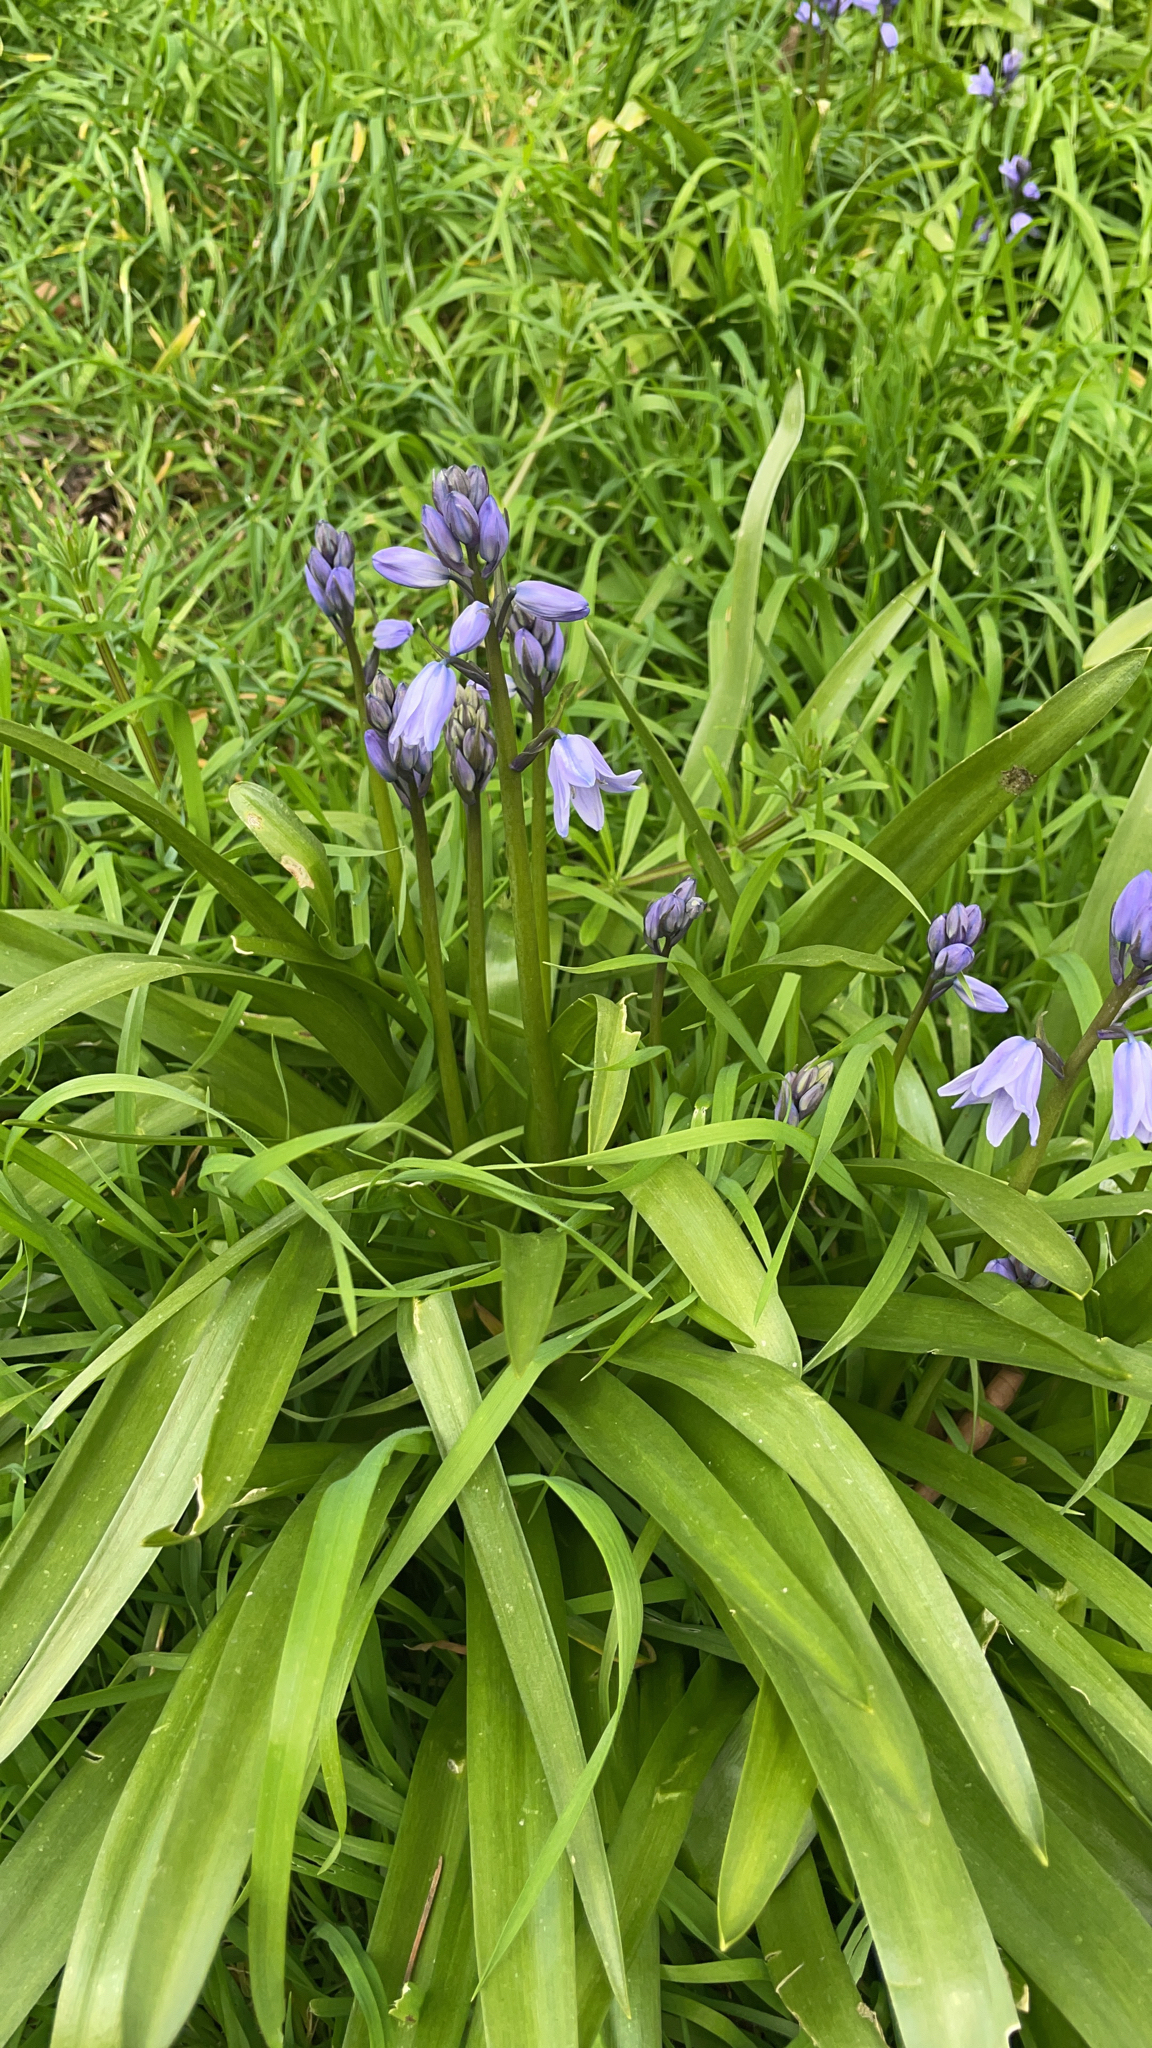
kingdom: Plantae
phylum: Tracheophyta
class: Liliopsida
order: Asparagales
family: Asparagaceae
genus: Hyacinthoides
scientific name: Hyacinthoides hispanica
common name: Spanish bluebell
